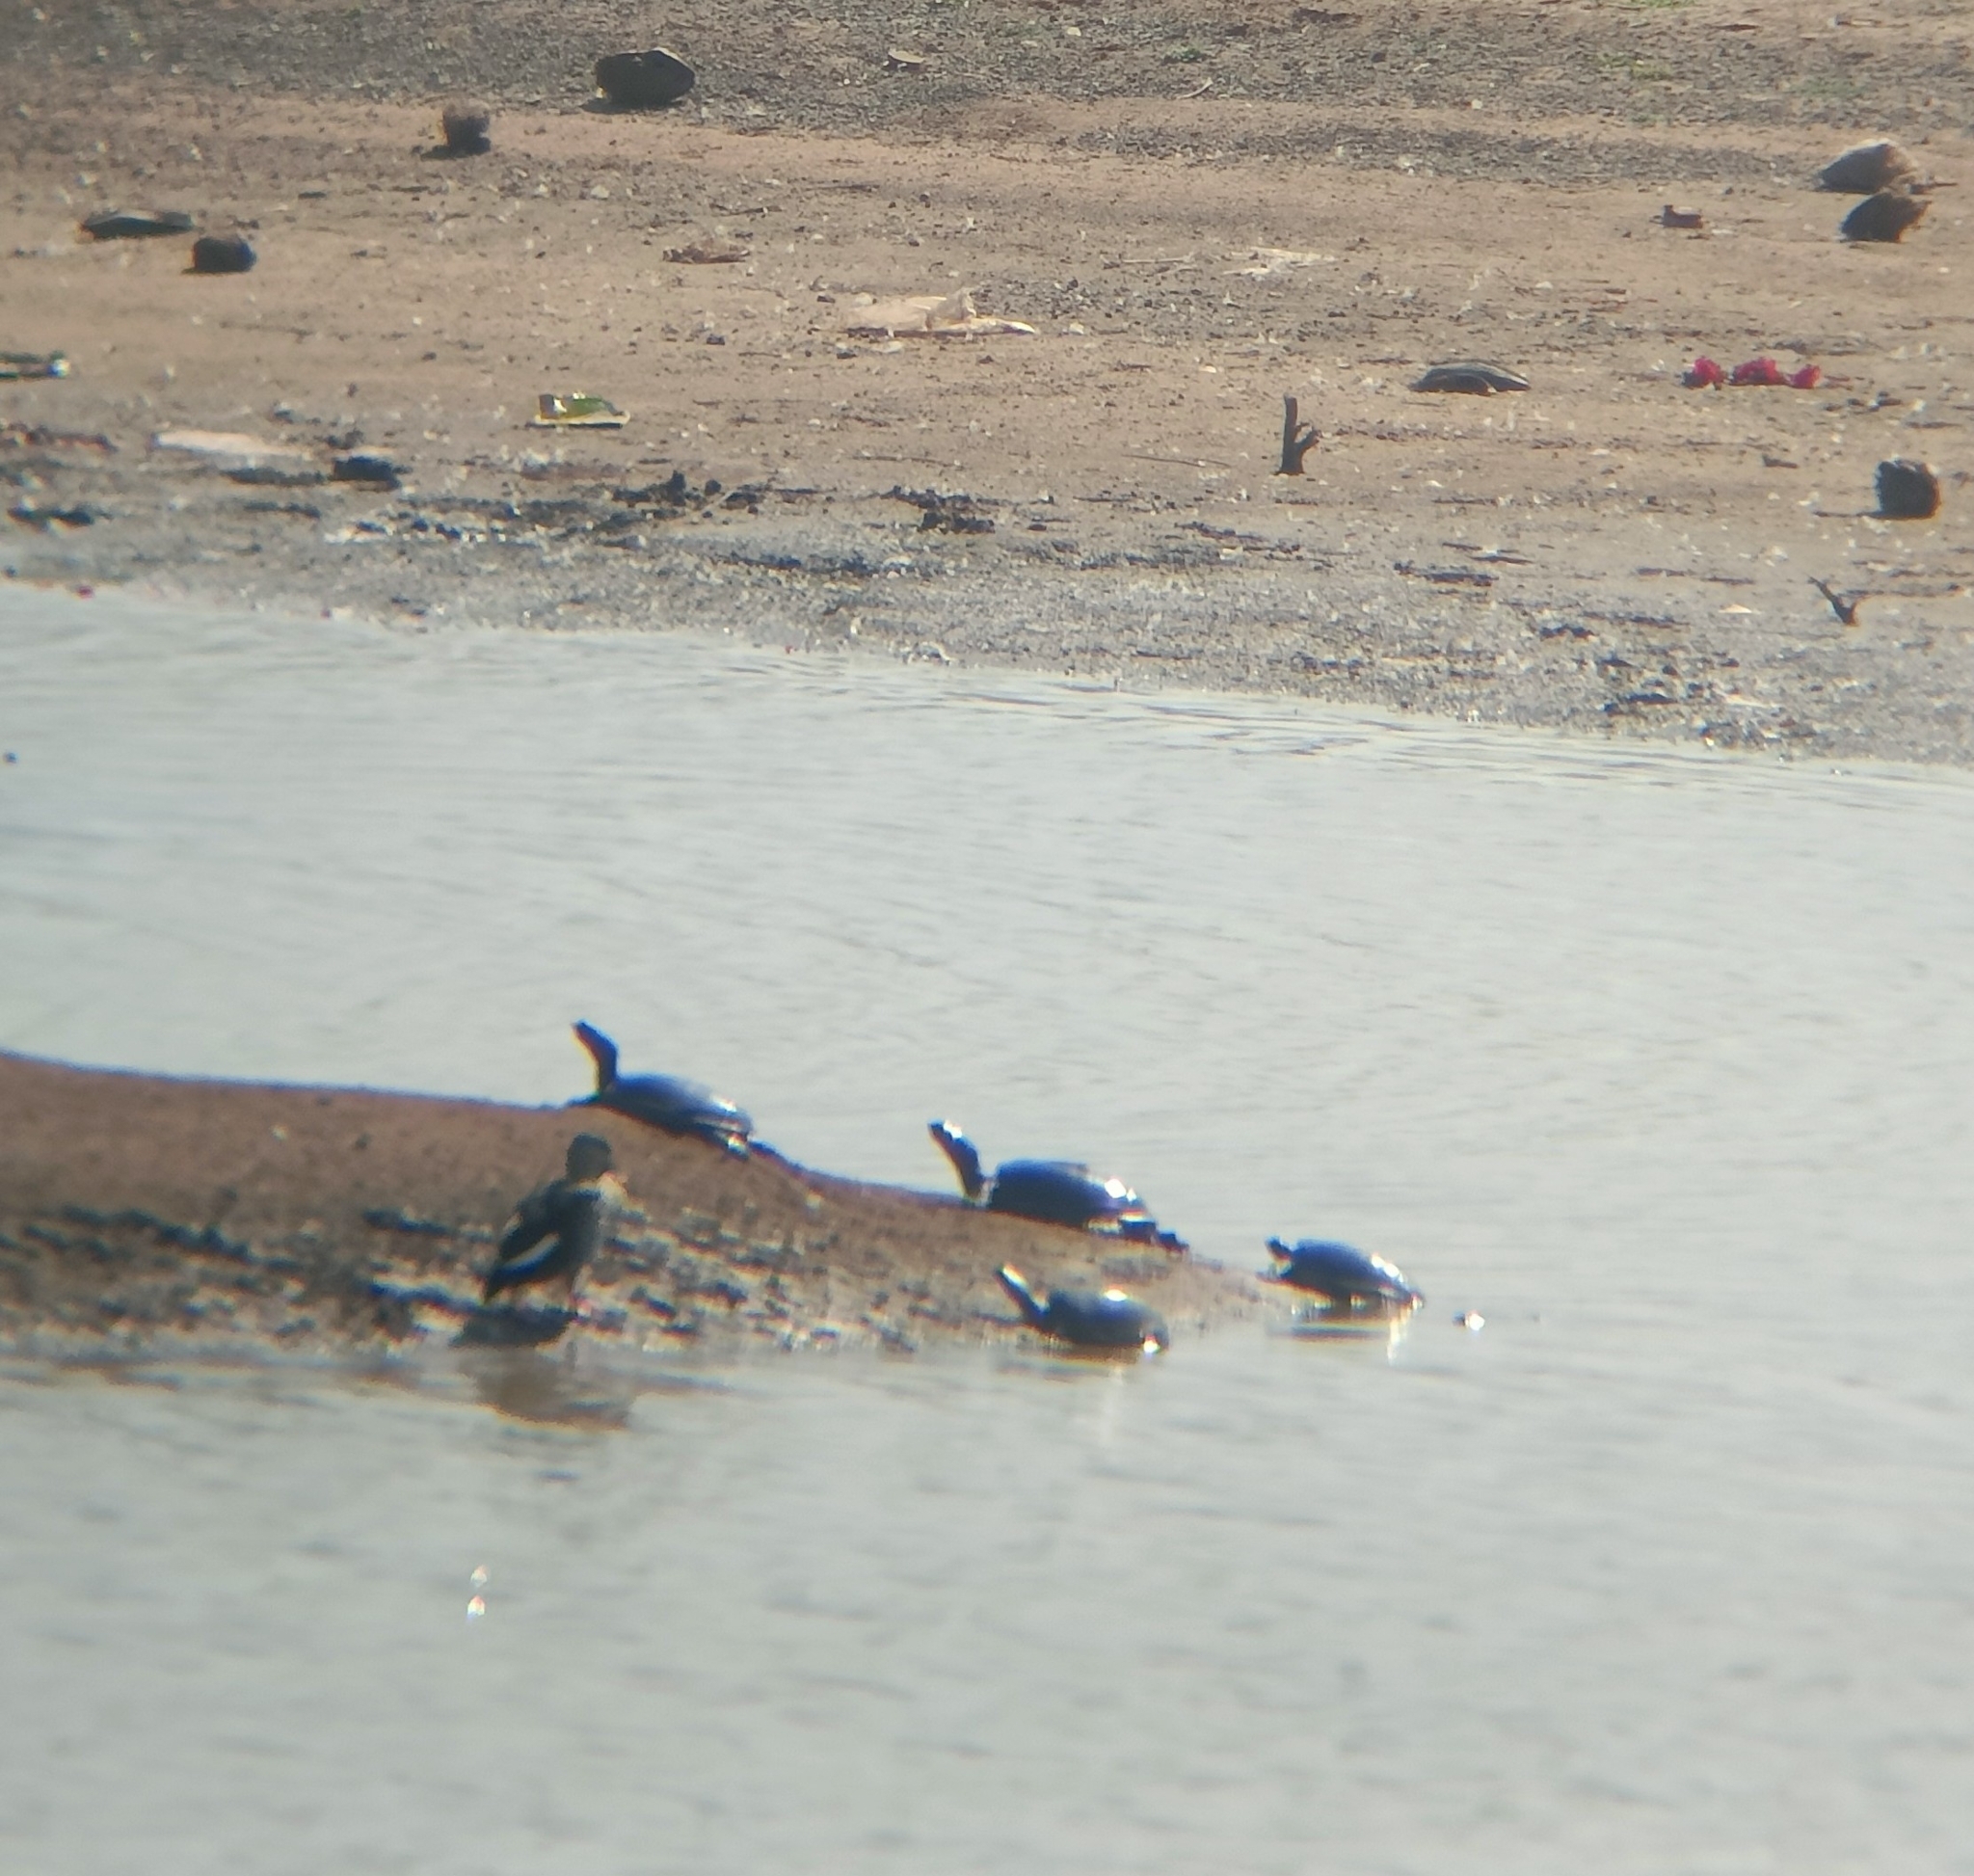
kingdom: Animalia
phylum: Chordata
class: Testudines
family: Trionychidae
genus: Lissemys
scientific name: Lissemys punctata
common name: Indian flap-shelled turtle
